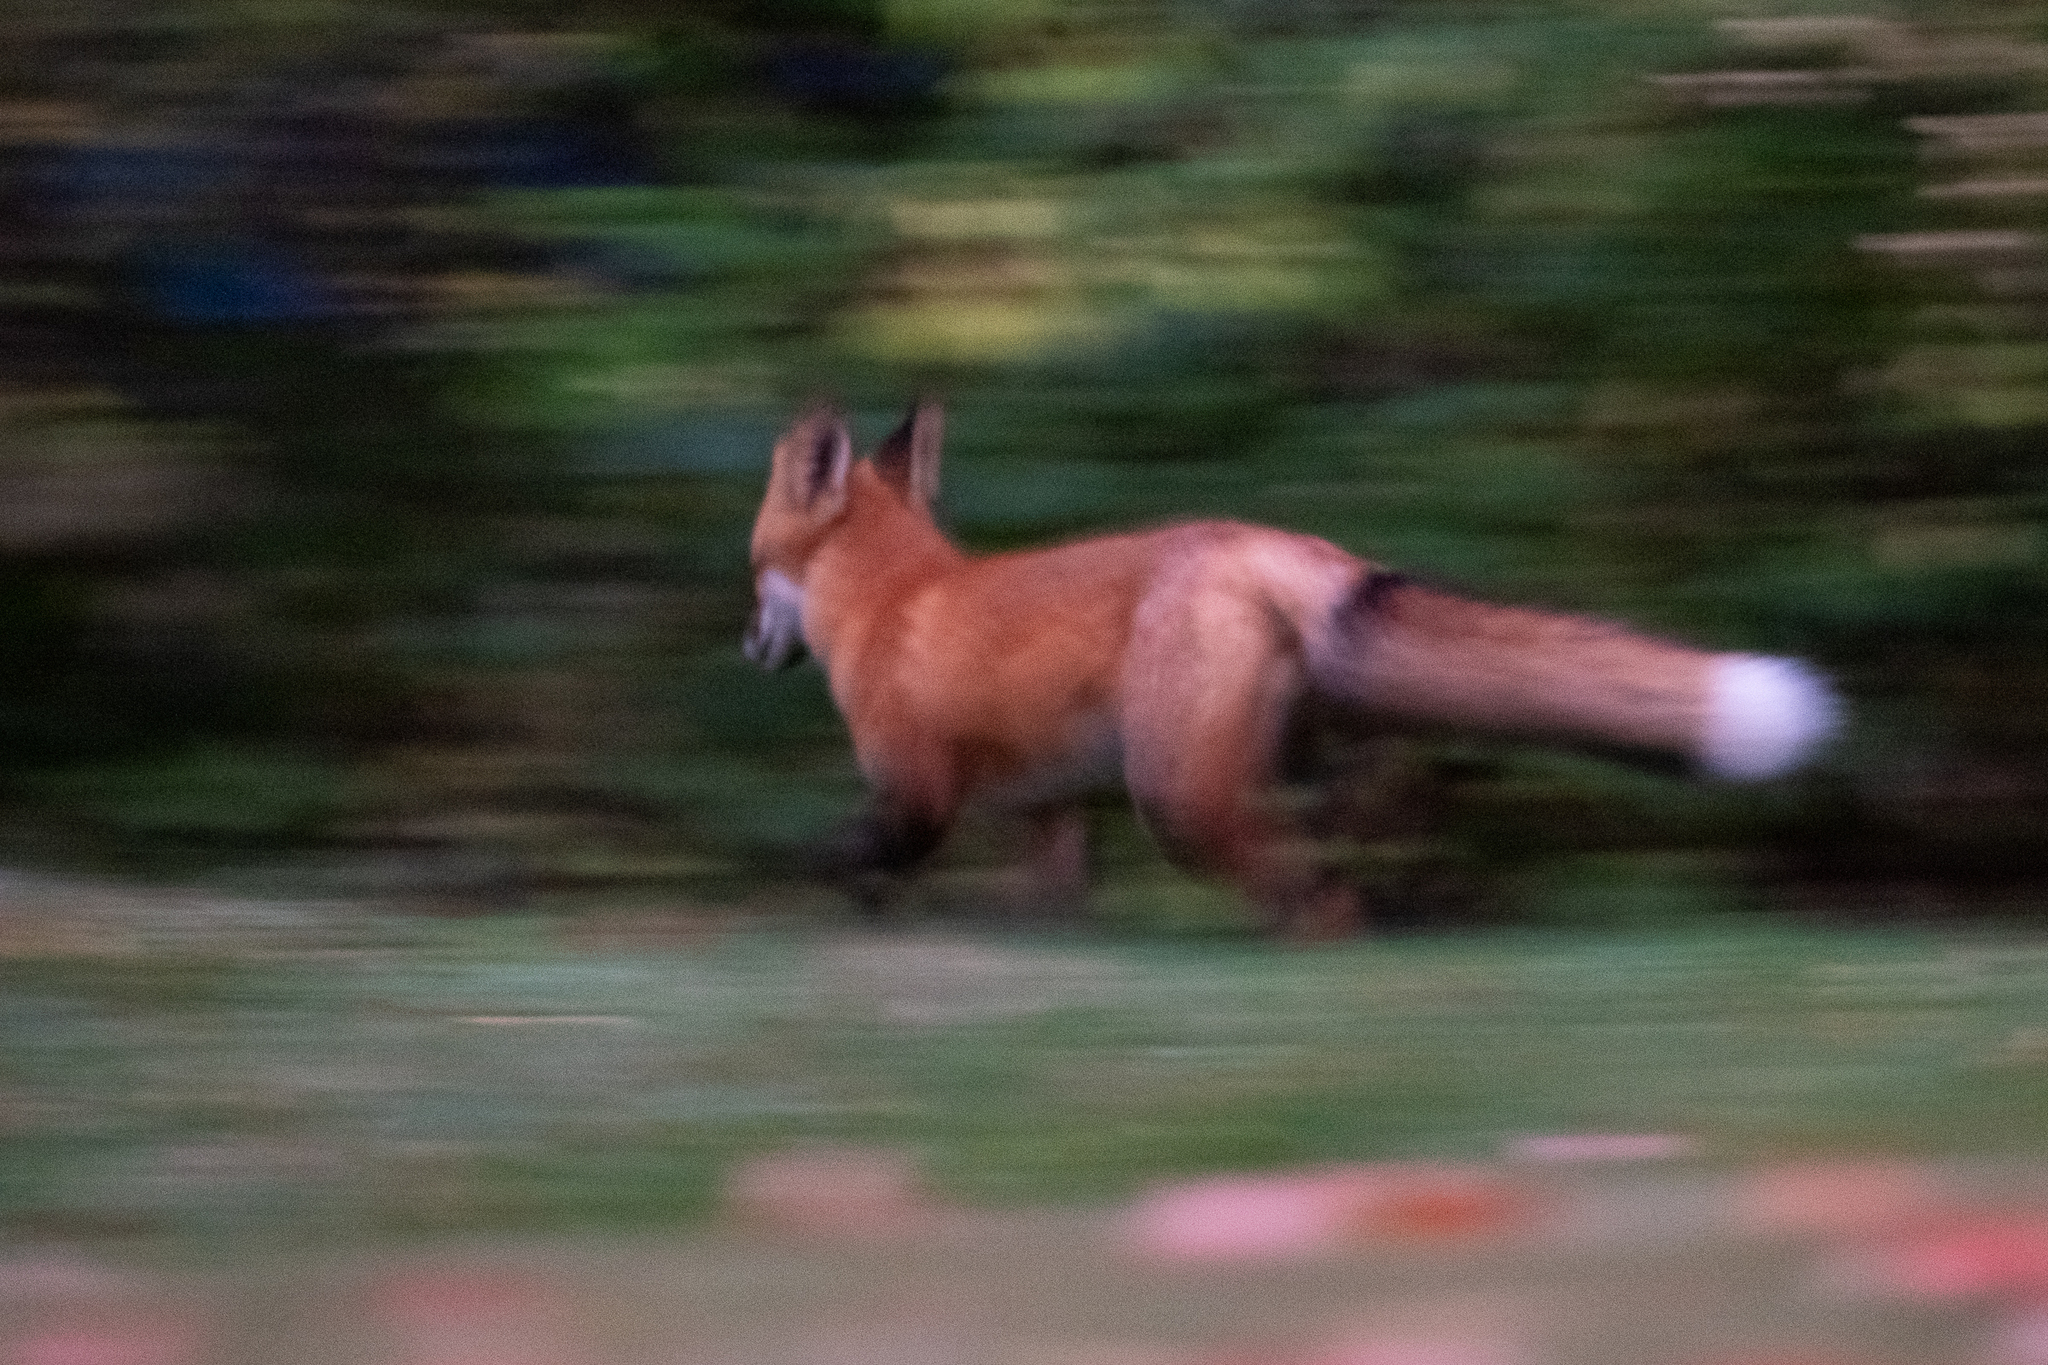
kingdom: Animalia
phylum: Chordata
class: Mammalia
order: Carnivora
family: Canidae
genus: Vulpes
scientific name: Vulpes vulpes
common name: Red fox
